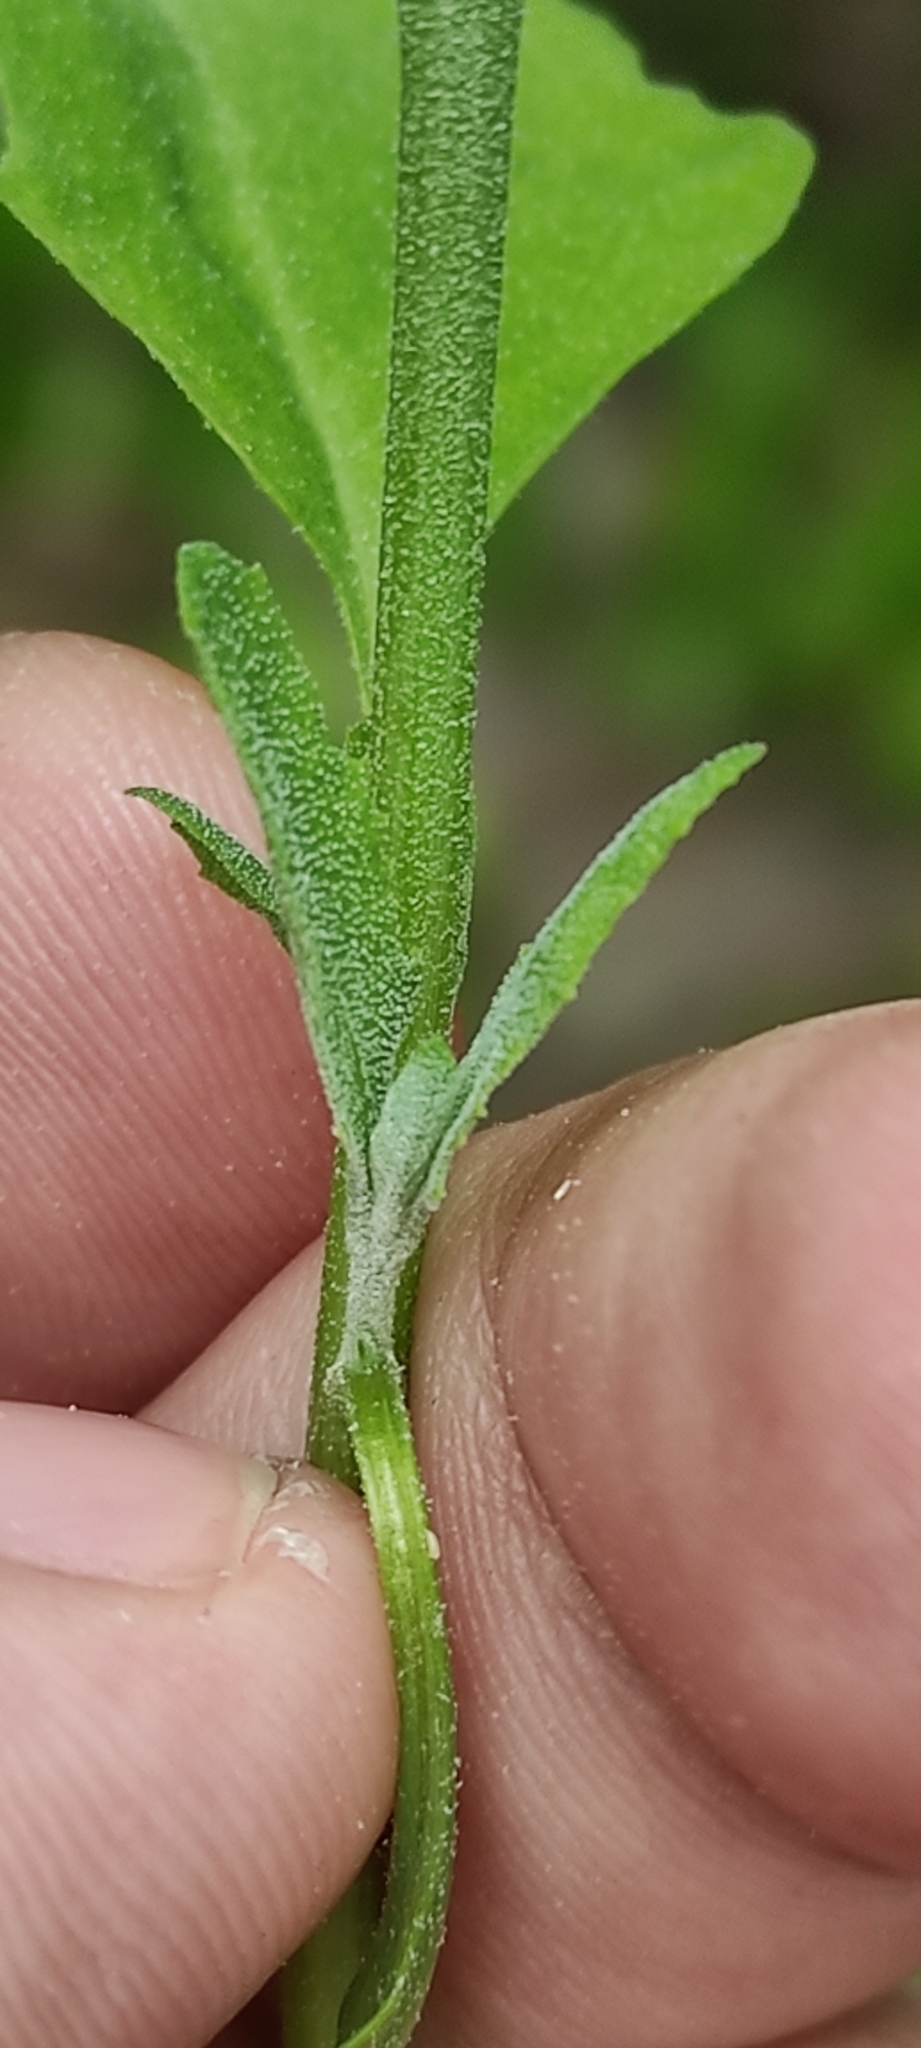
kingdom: Plantae
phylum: Tracheophyta
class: Magnoliopsida
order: Caryophyllales
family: Amaranthaceae
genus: Atriplex
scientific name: Atriplex patula
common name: Common orache
